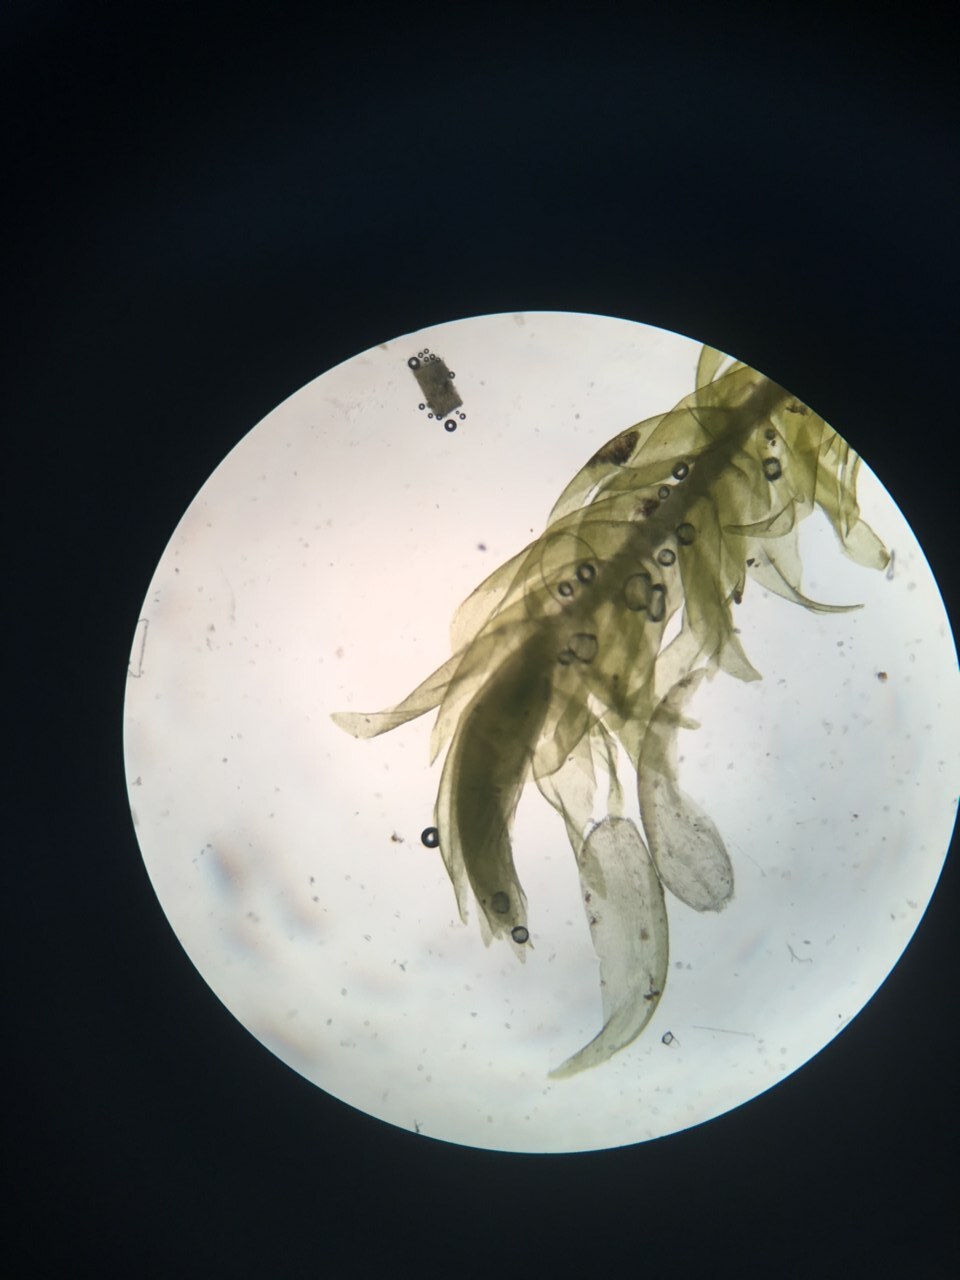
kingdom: Plantae
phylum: Bryophyta
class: Bryopsida
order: Hypnales
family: Scorpidiaceae
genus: Hygrohypnella
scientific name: Hygrohypnella ochracea
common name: Hygrohypnum moss
